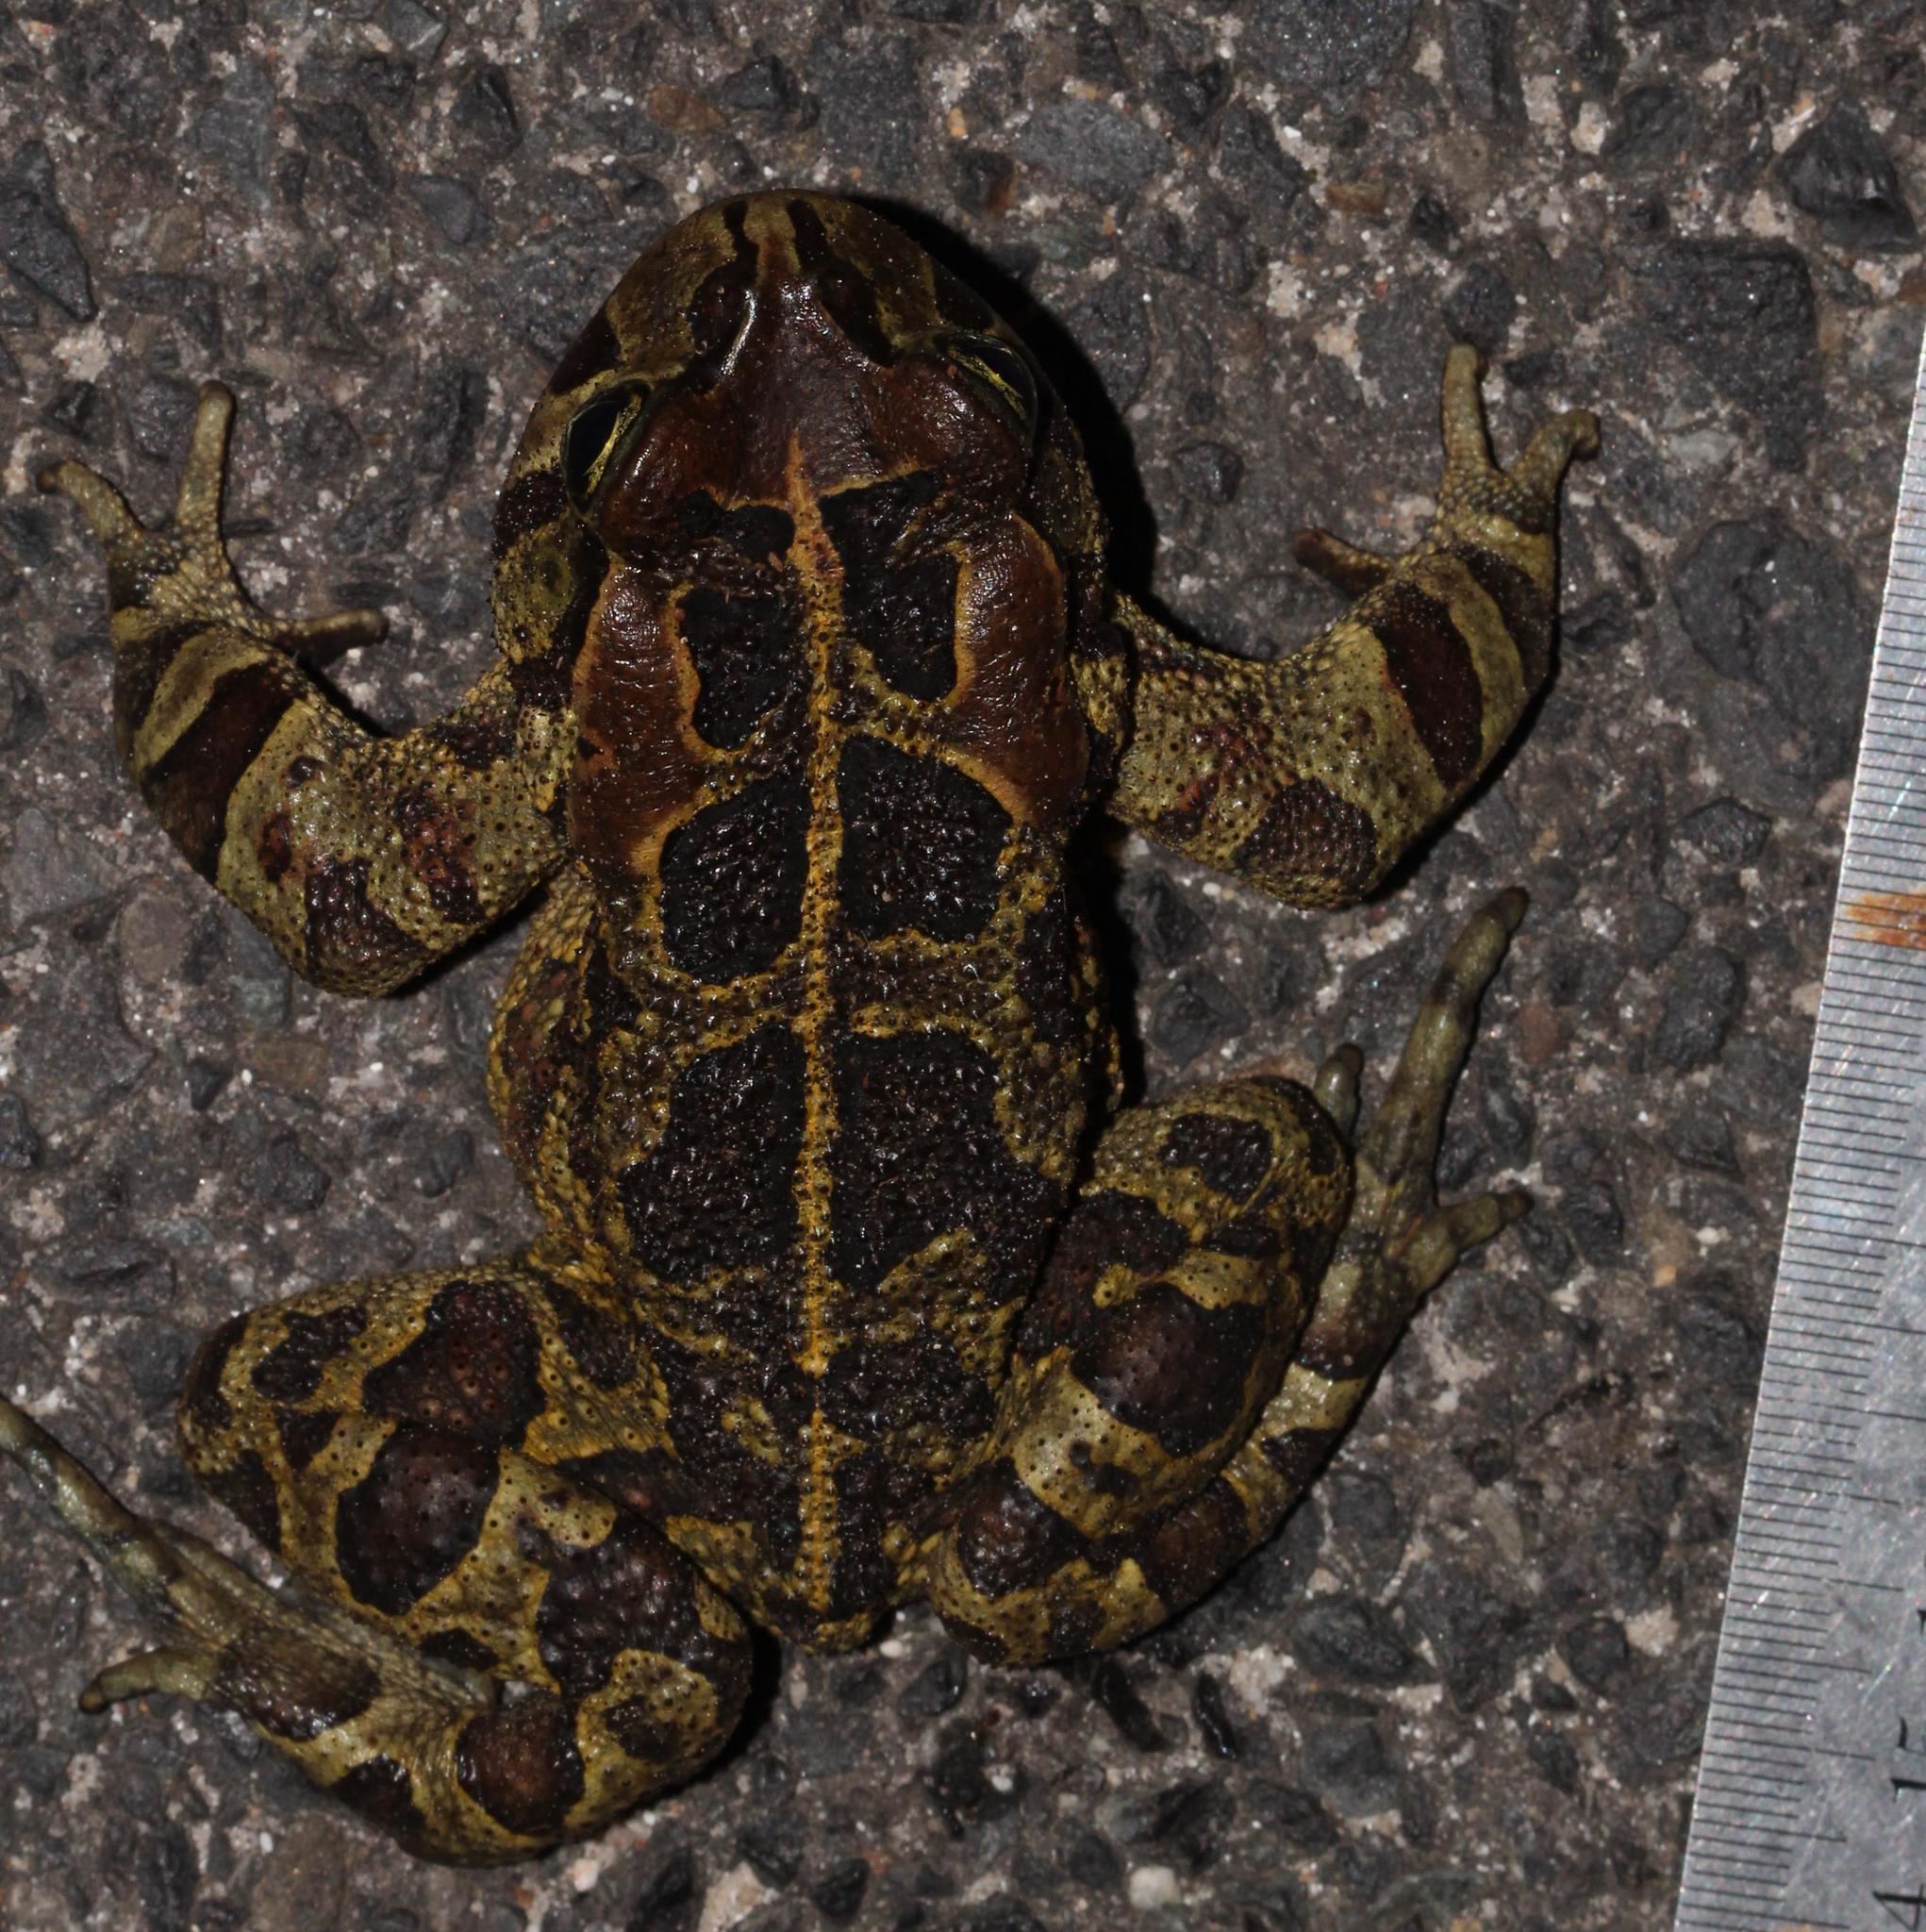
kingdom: Animalia
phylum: Chordata
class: Amphibia
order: Anura
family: Bufonidae
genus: Sclerophrys
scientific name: Sclerophrys pantherina
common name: Panther toad
